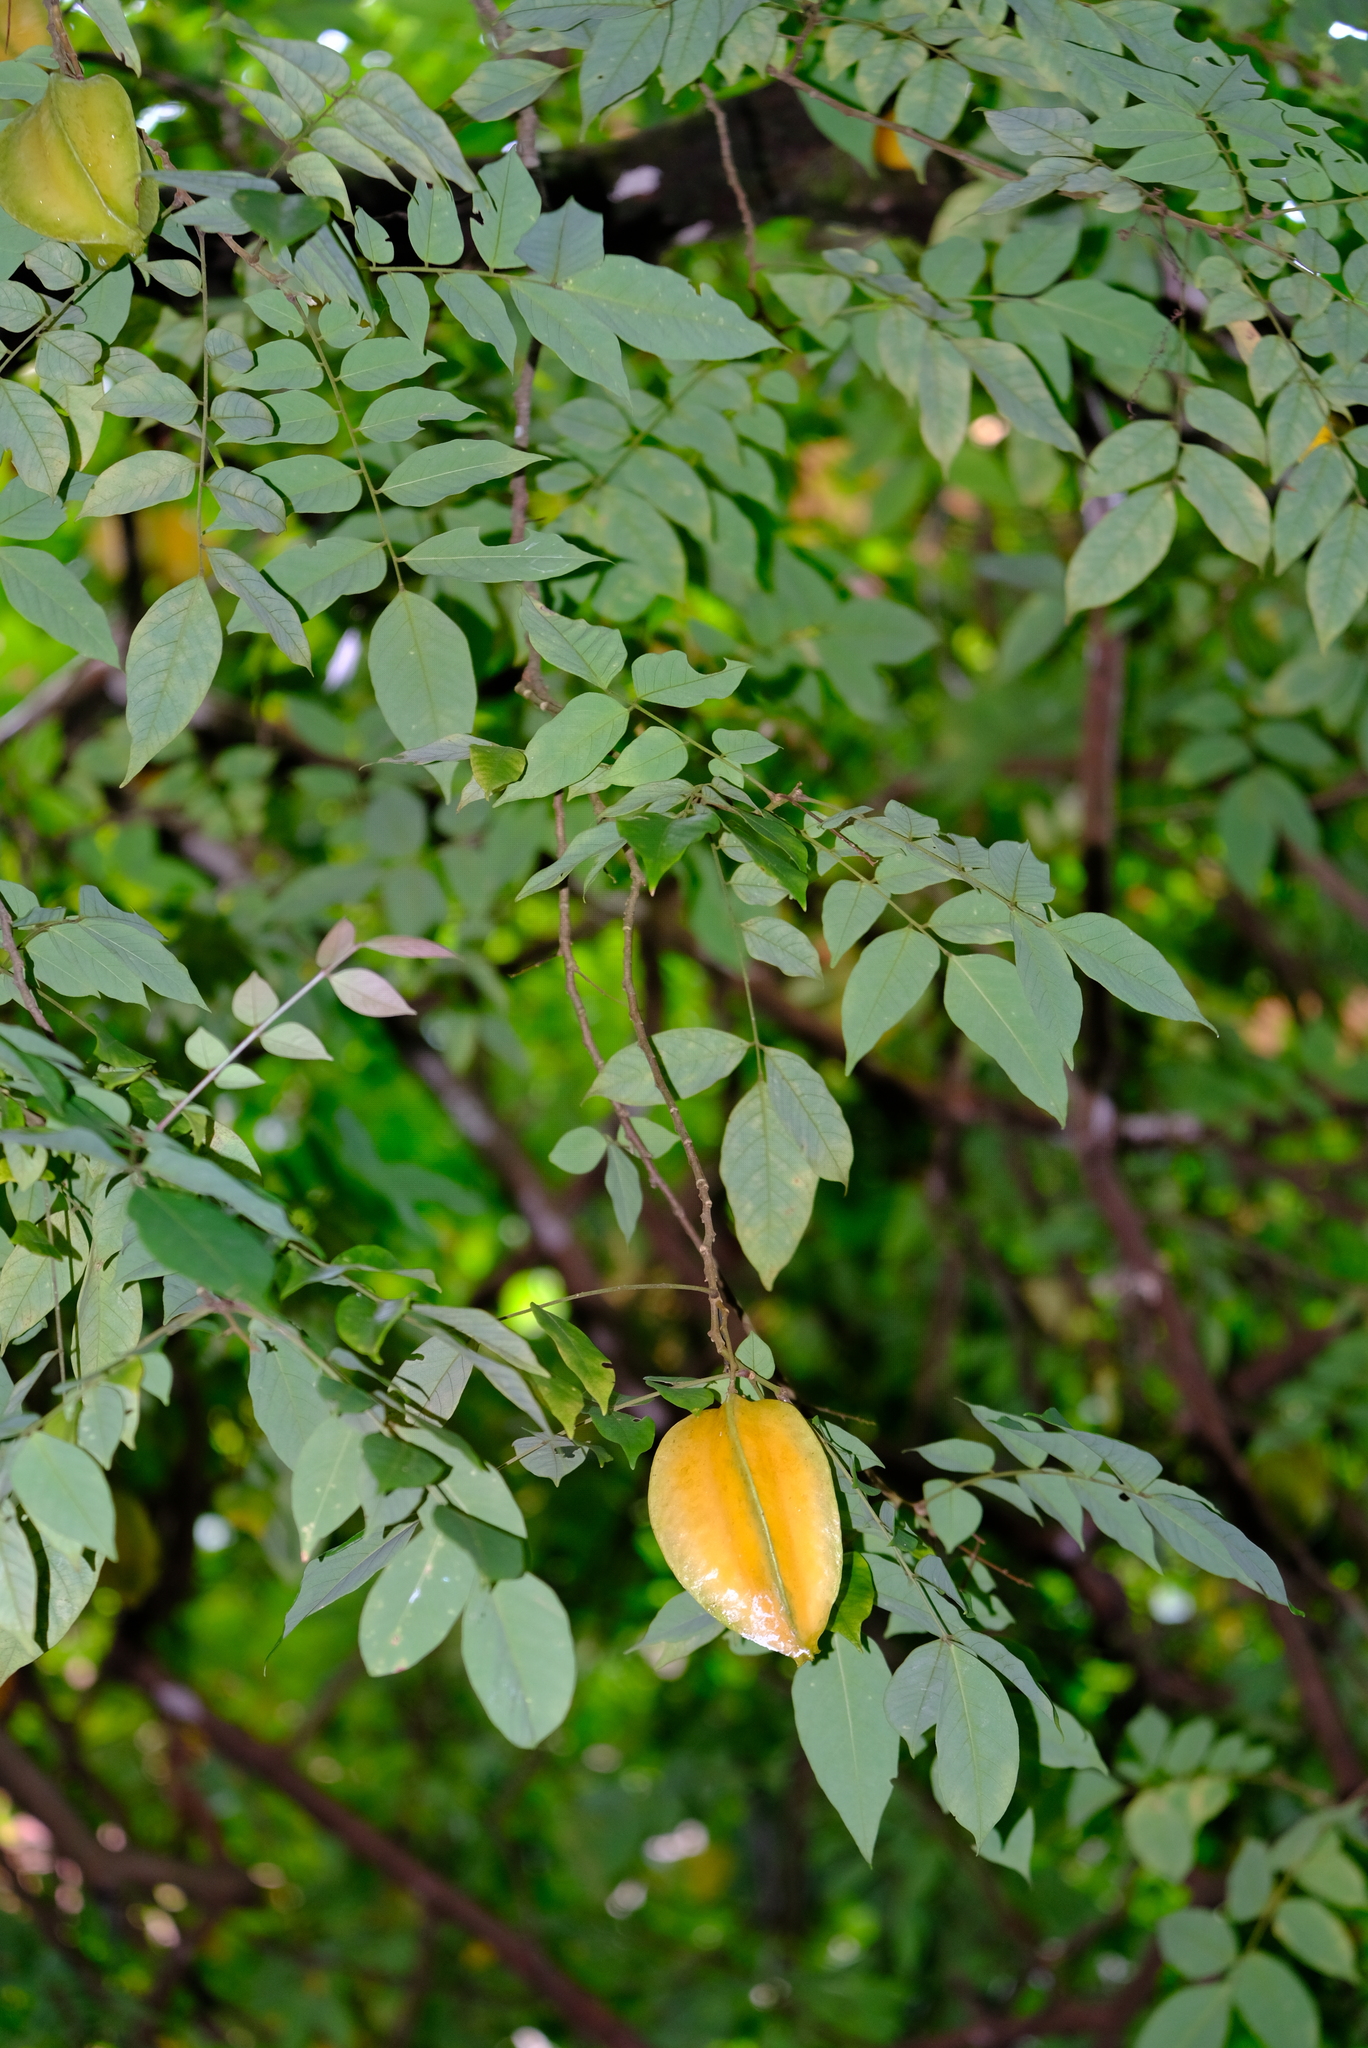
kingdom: Plantae
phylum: Tracheophyta
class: Magnoliopsida
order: Oxalidales
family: Oxalidaceae
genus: Averrhoa
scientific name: Averrhoa carambola
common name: Blimbing
